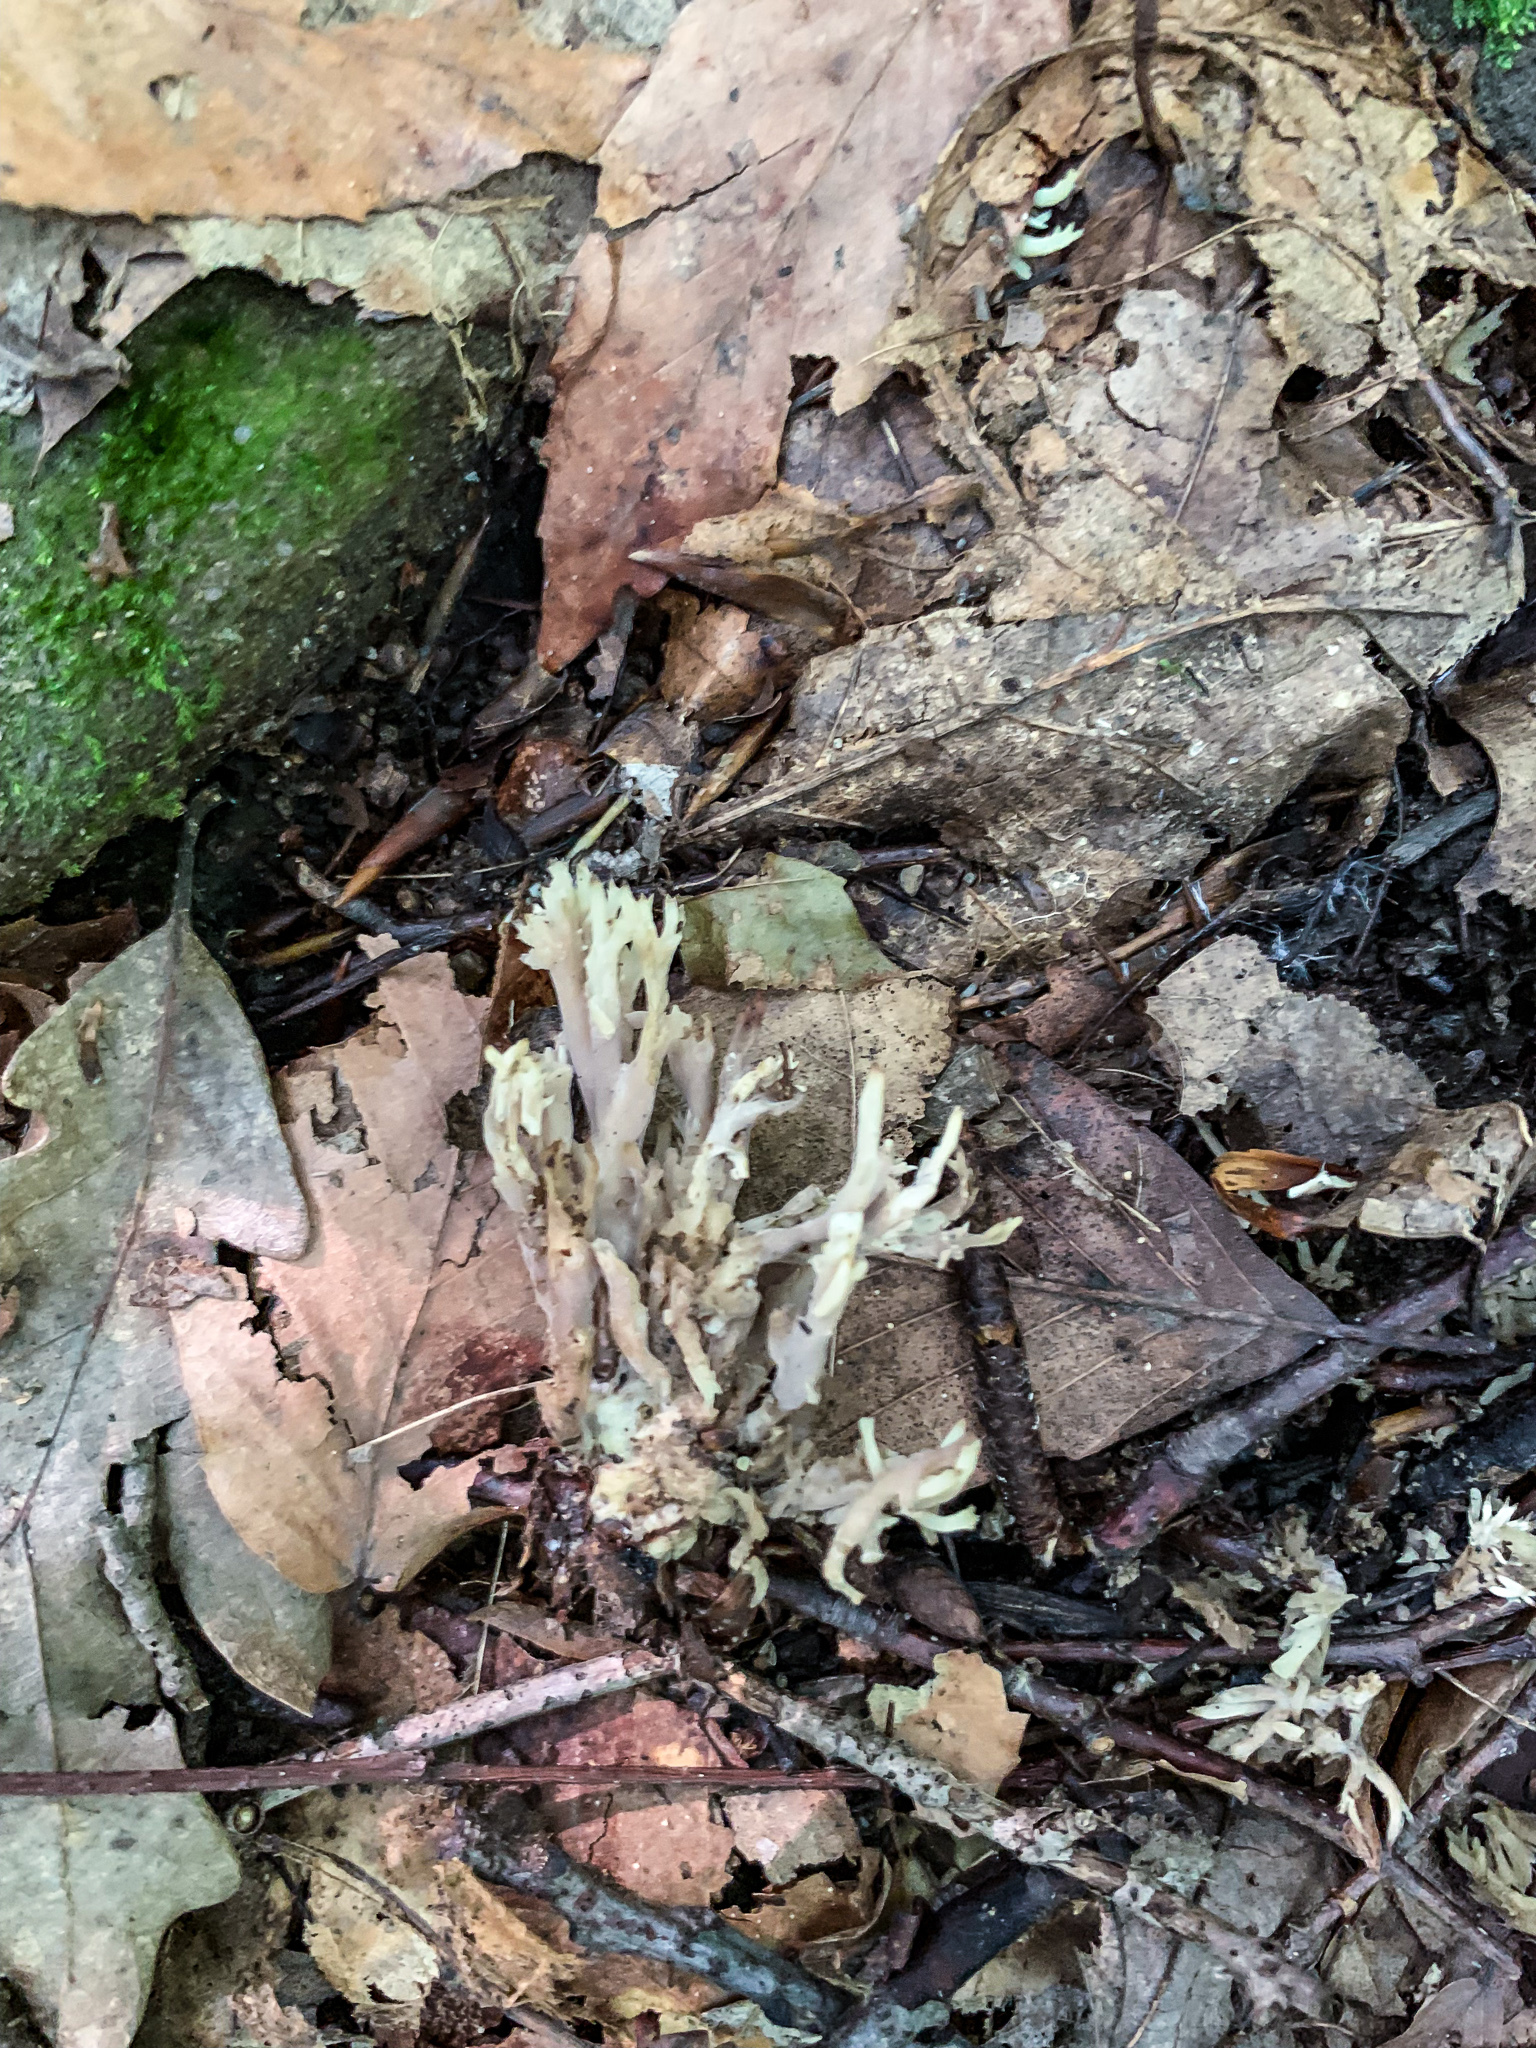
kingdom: Fungi
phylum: Basidiomycota
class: Agaricomycetes
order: Cantharellales
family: Hydnaceae
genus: Clavulina
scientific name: Clavulina coralloides
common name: Crested coral
